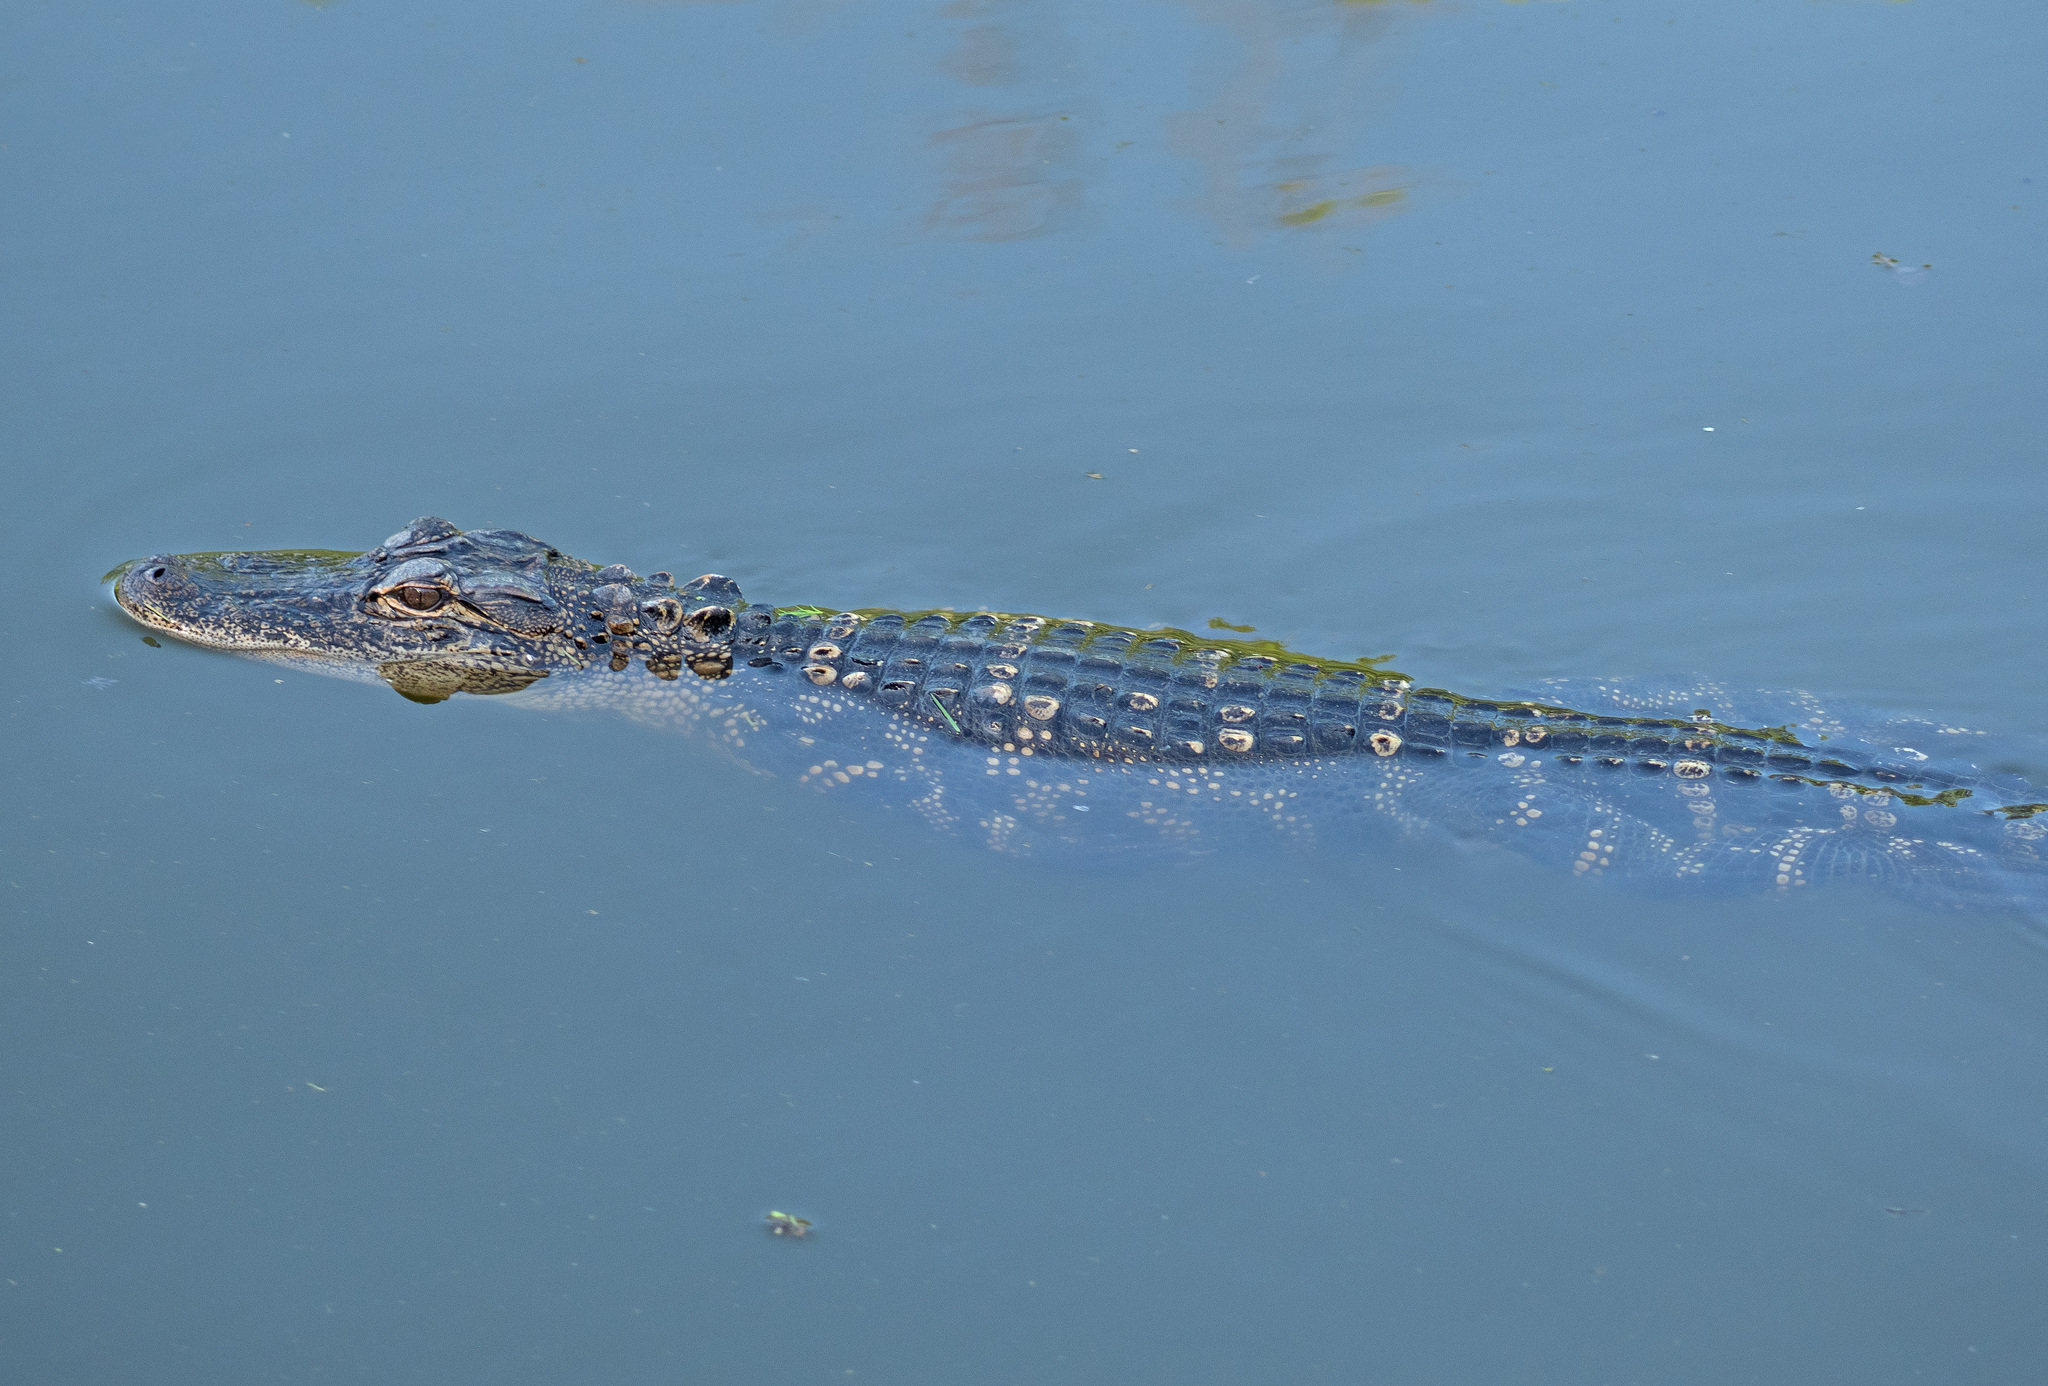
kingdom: Animalia
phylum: Chordata
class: Crocodylia
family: Alligatoridae
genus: Alligator
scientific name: Alligator mississippiensis
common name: American alligator
